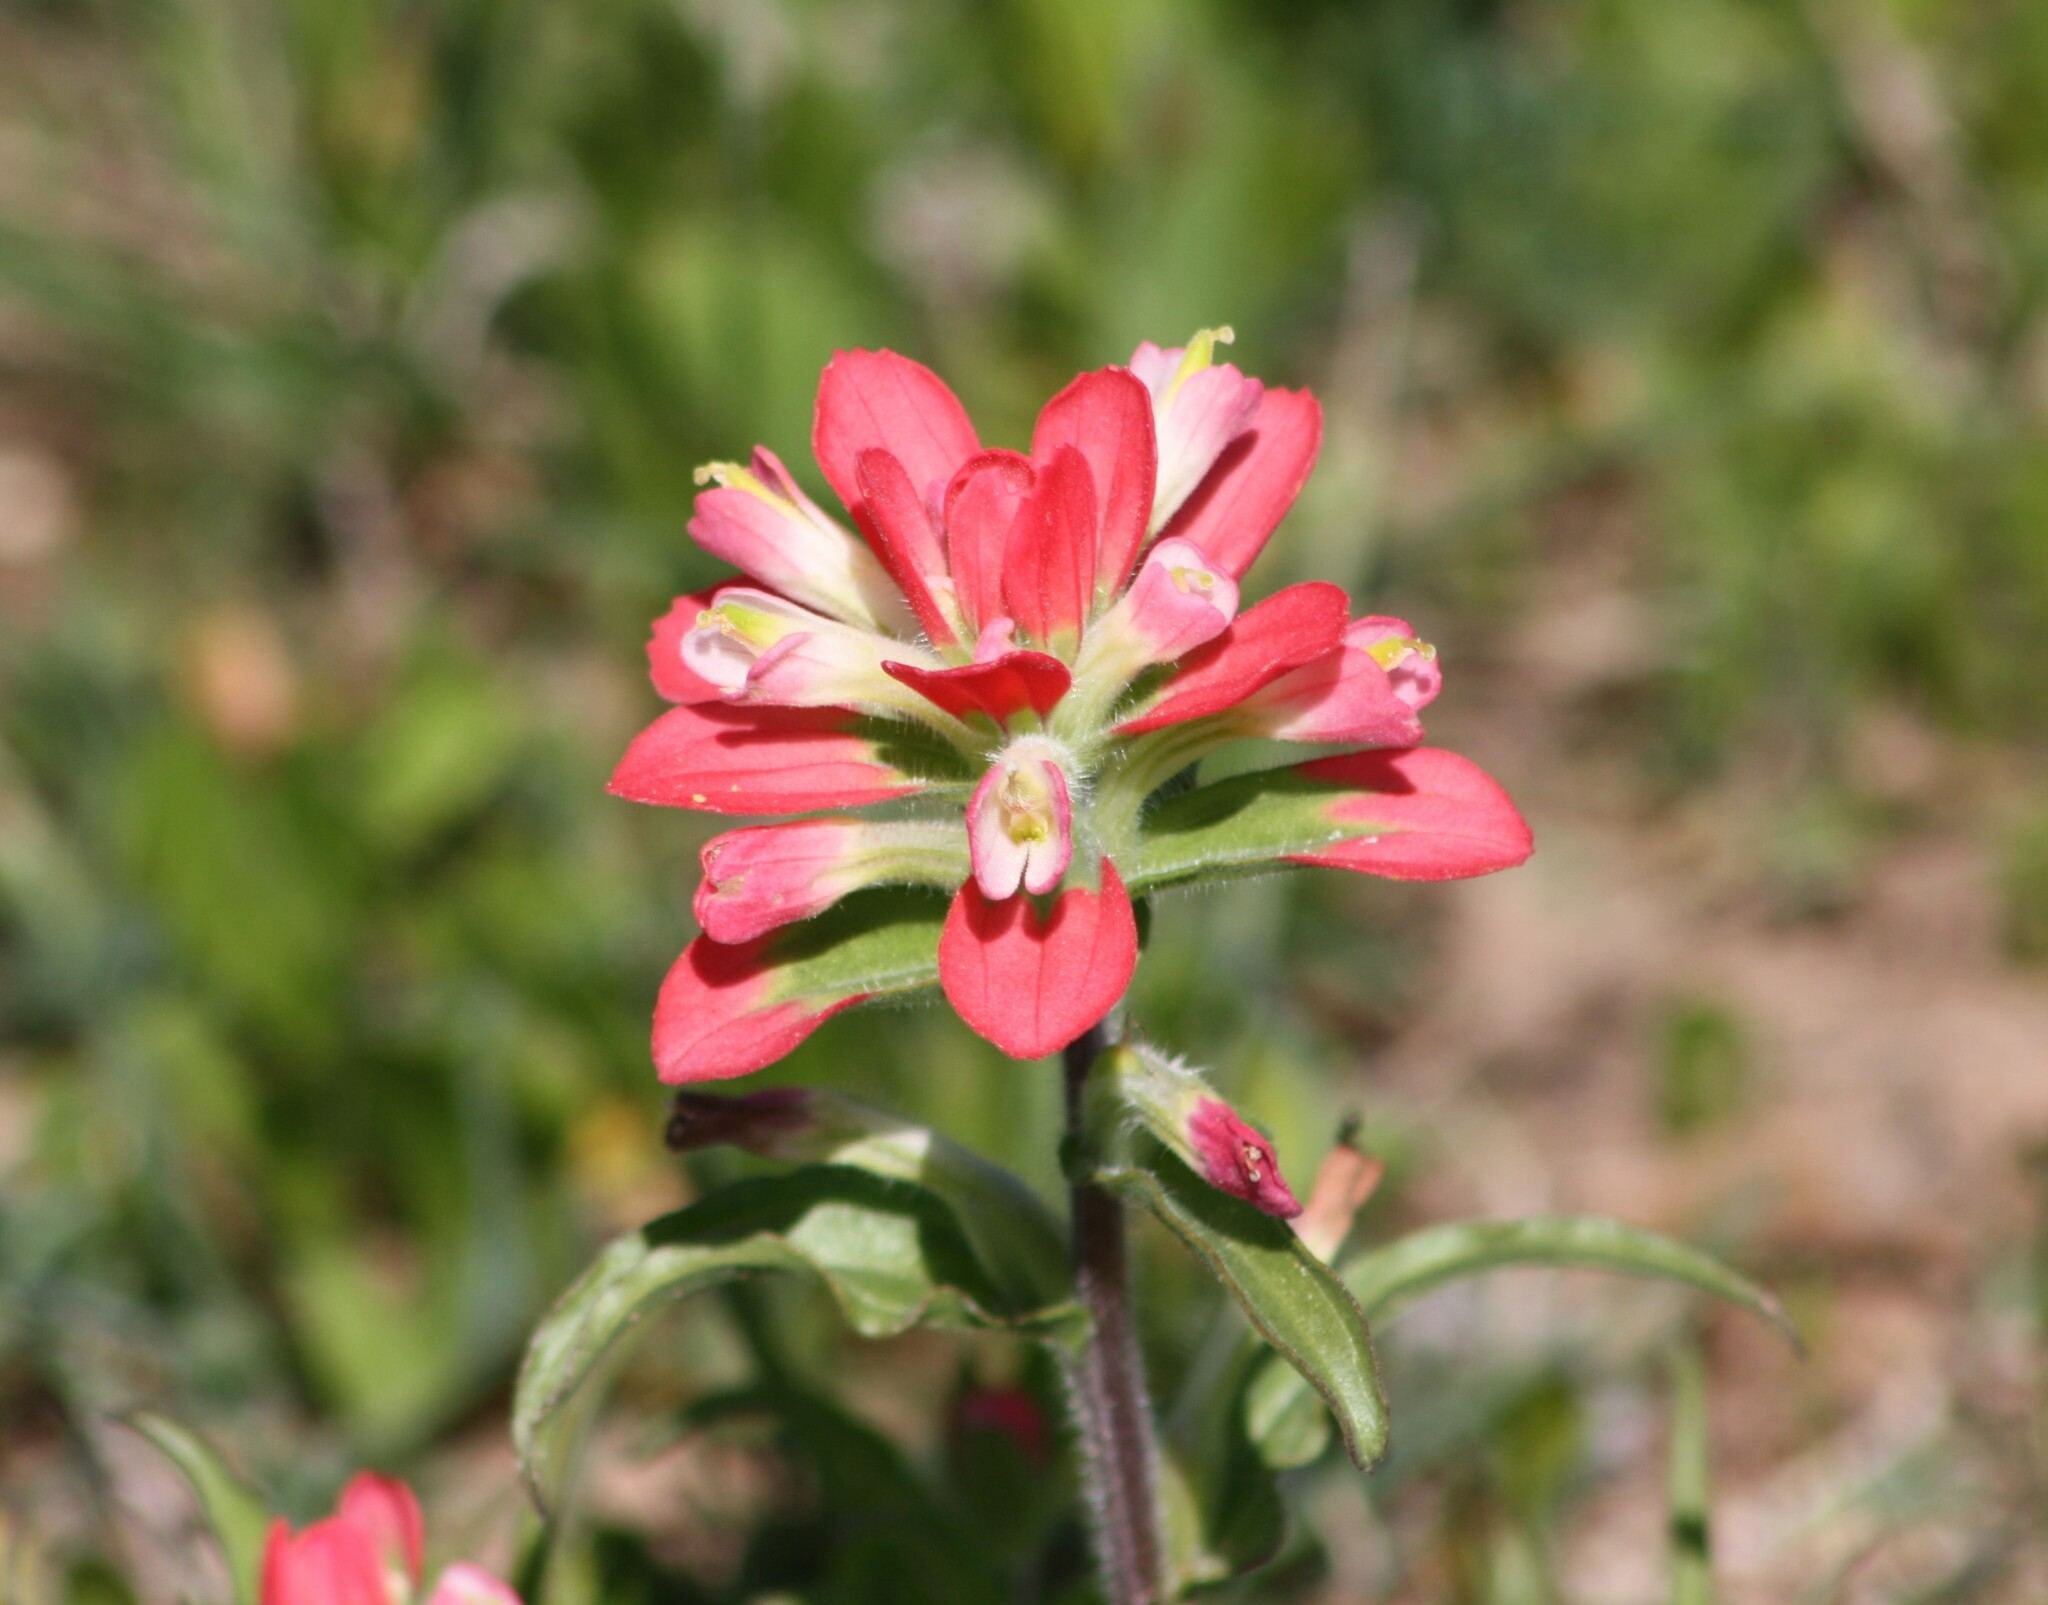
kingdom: Plantae
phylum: Tracheophyta
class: Magnoliopsida
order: Lamiales
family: Orobanchaceae
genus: Castilleja
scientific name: Castilleja indivisa
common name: Texas paintbrush
